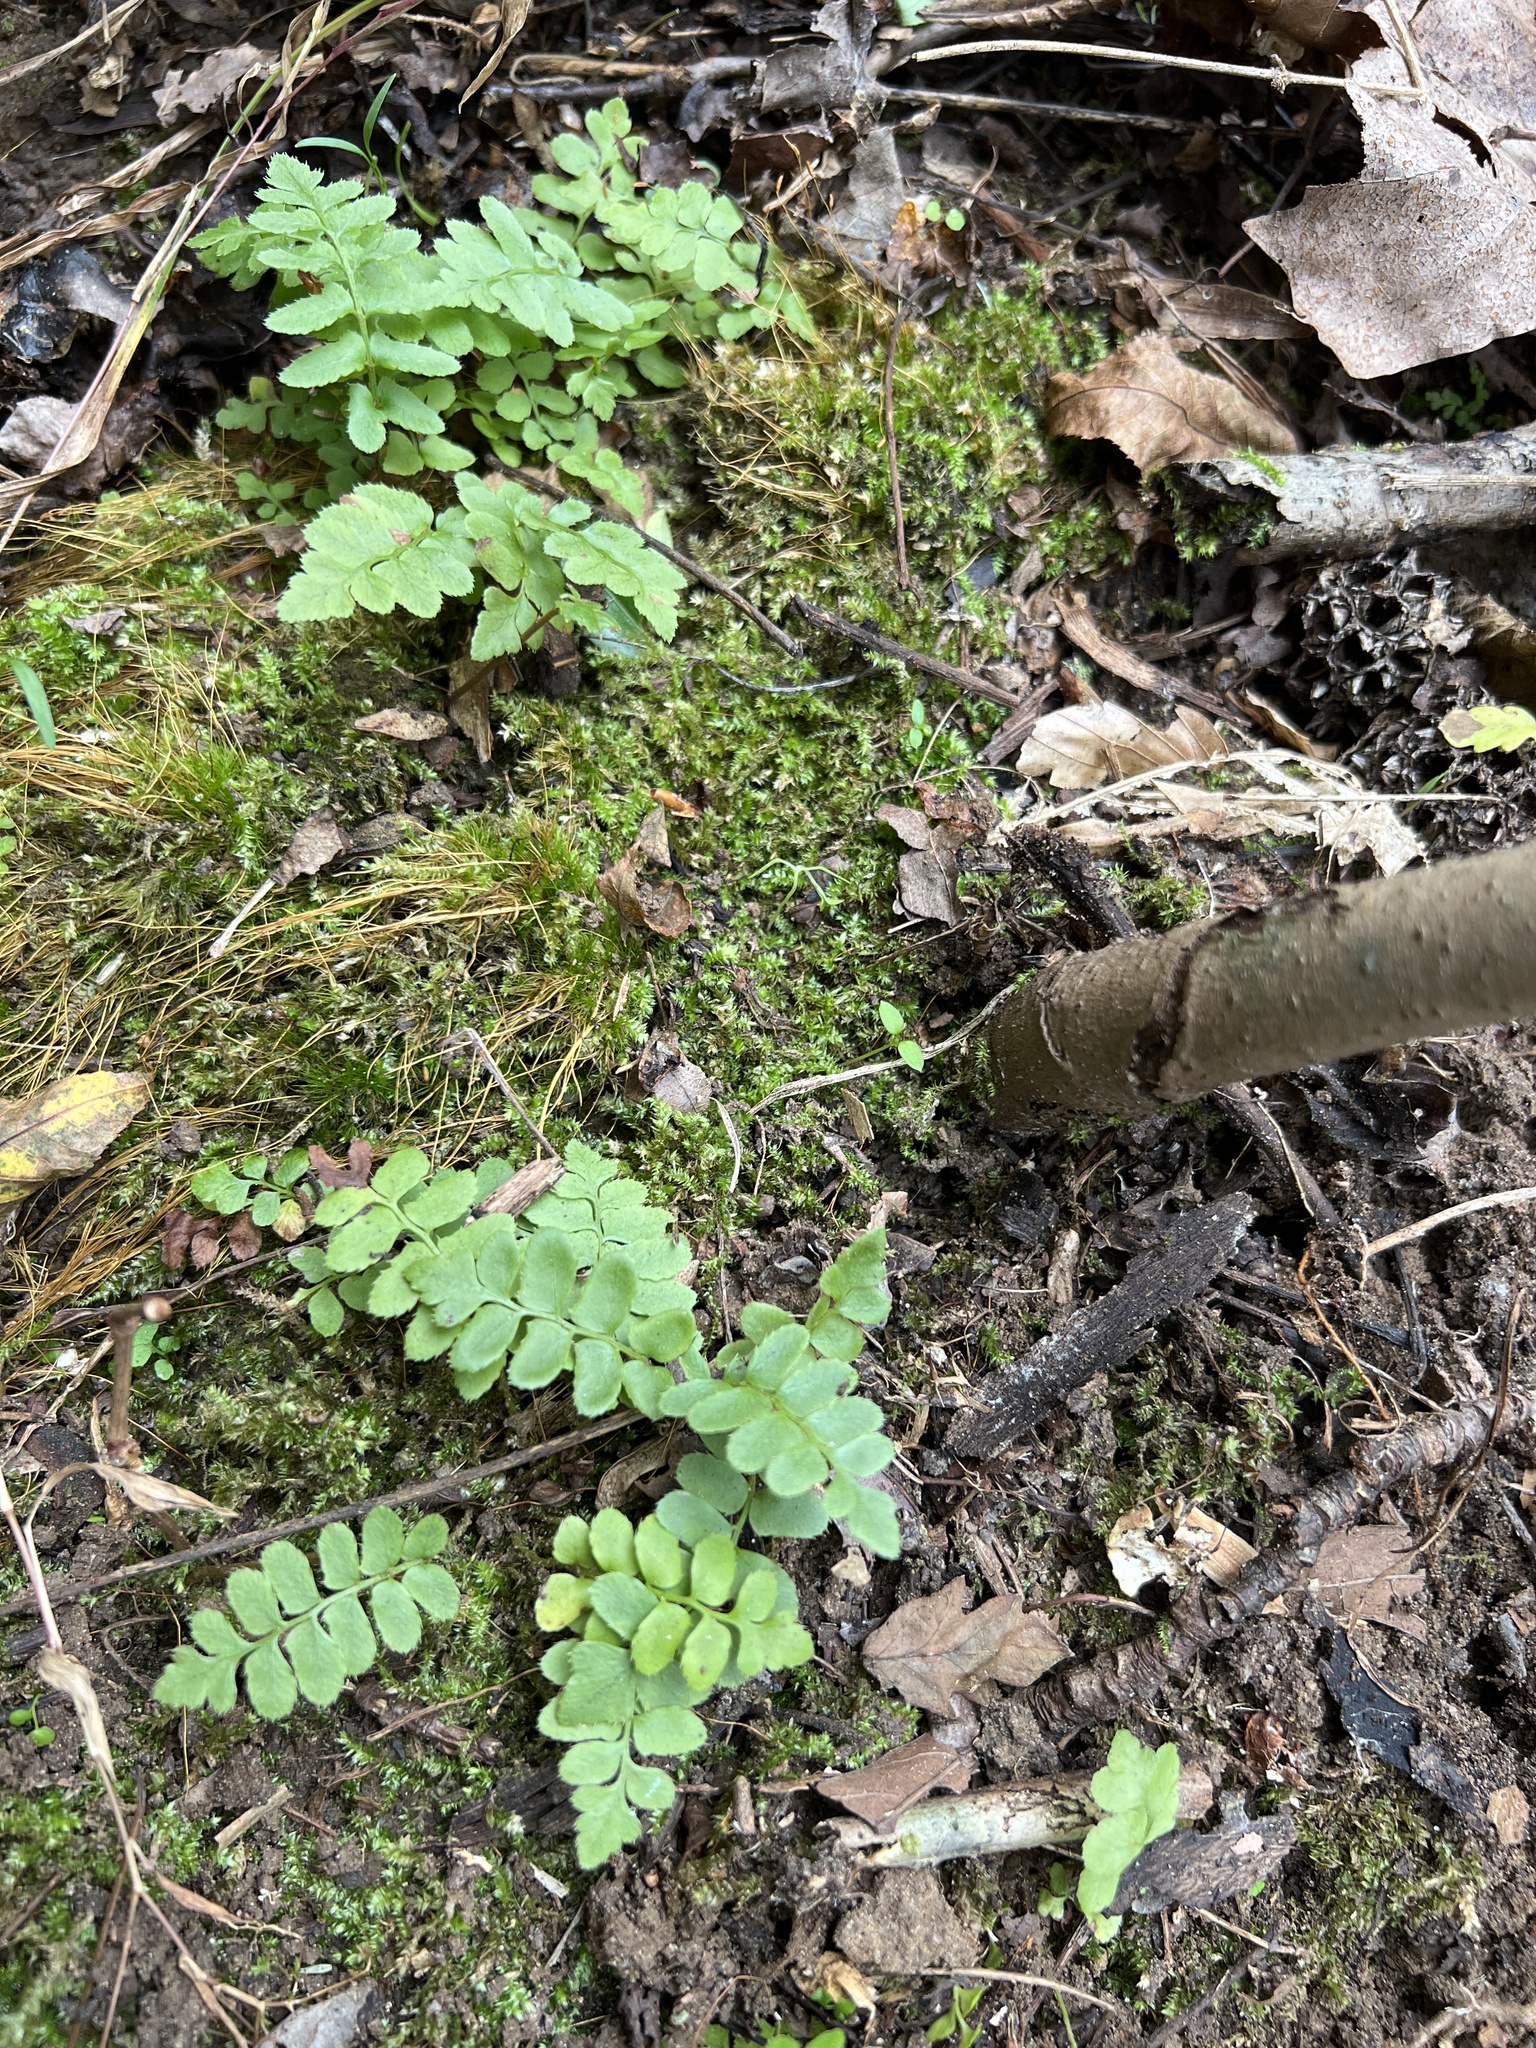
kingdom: Plantae
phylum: Tracheophyta
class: Polypodiopsida
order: Polypodiales
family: Dryopteridaceae
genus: Polystichum
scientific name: Polystichum acrostichoides
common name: Christmas fern
